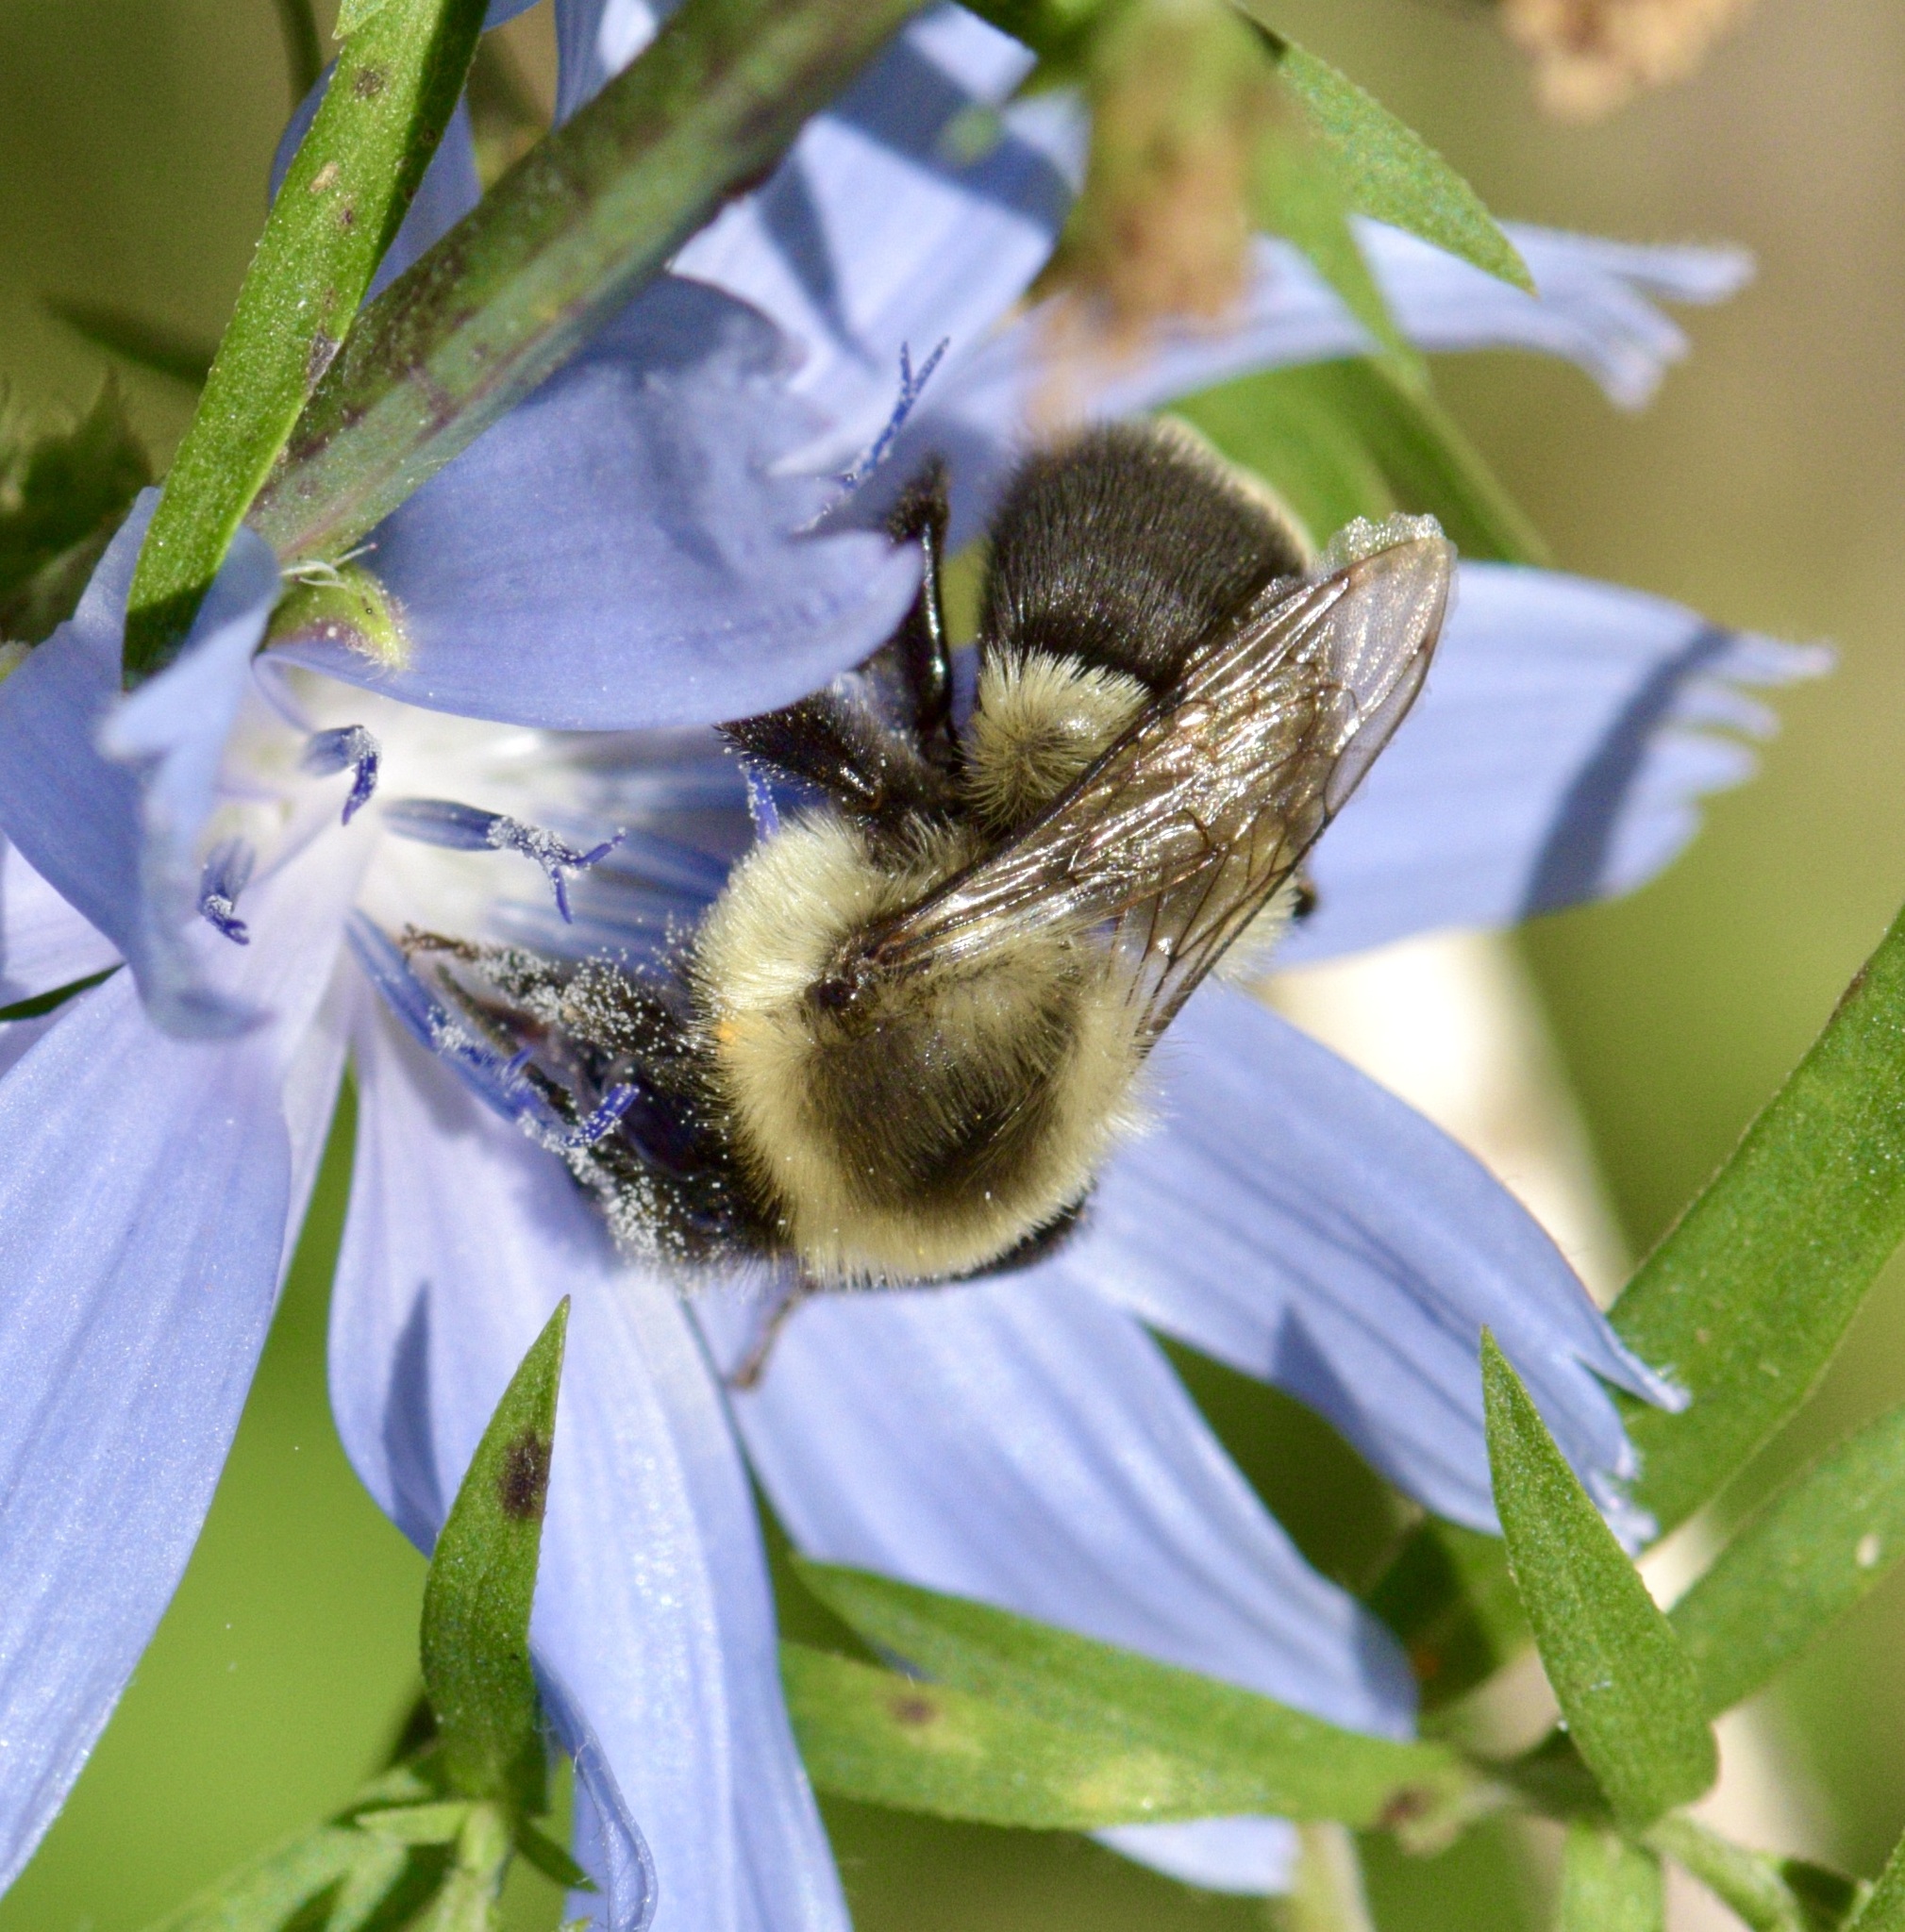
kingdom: Animalia
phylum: Arthropoda
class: Insecta
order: Hymenoptera
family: Apidae
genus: Bombus
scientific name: Bombus impatiens
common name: Common eastern bumble bee
